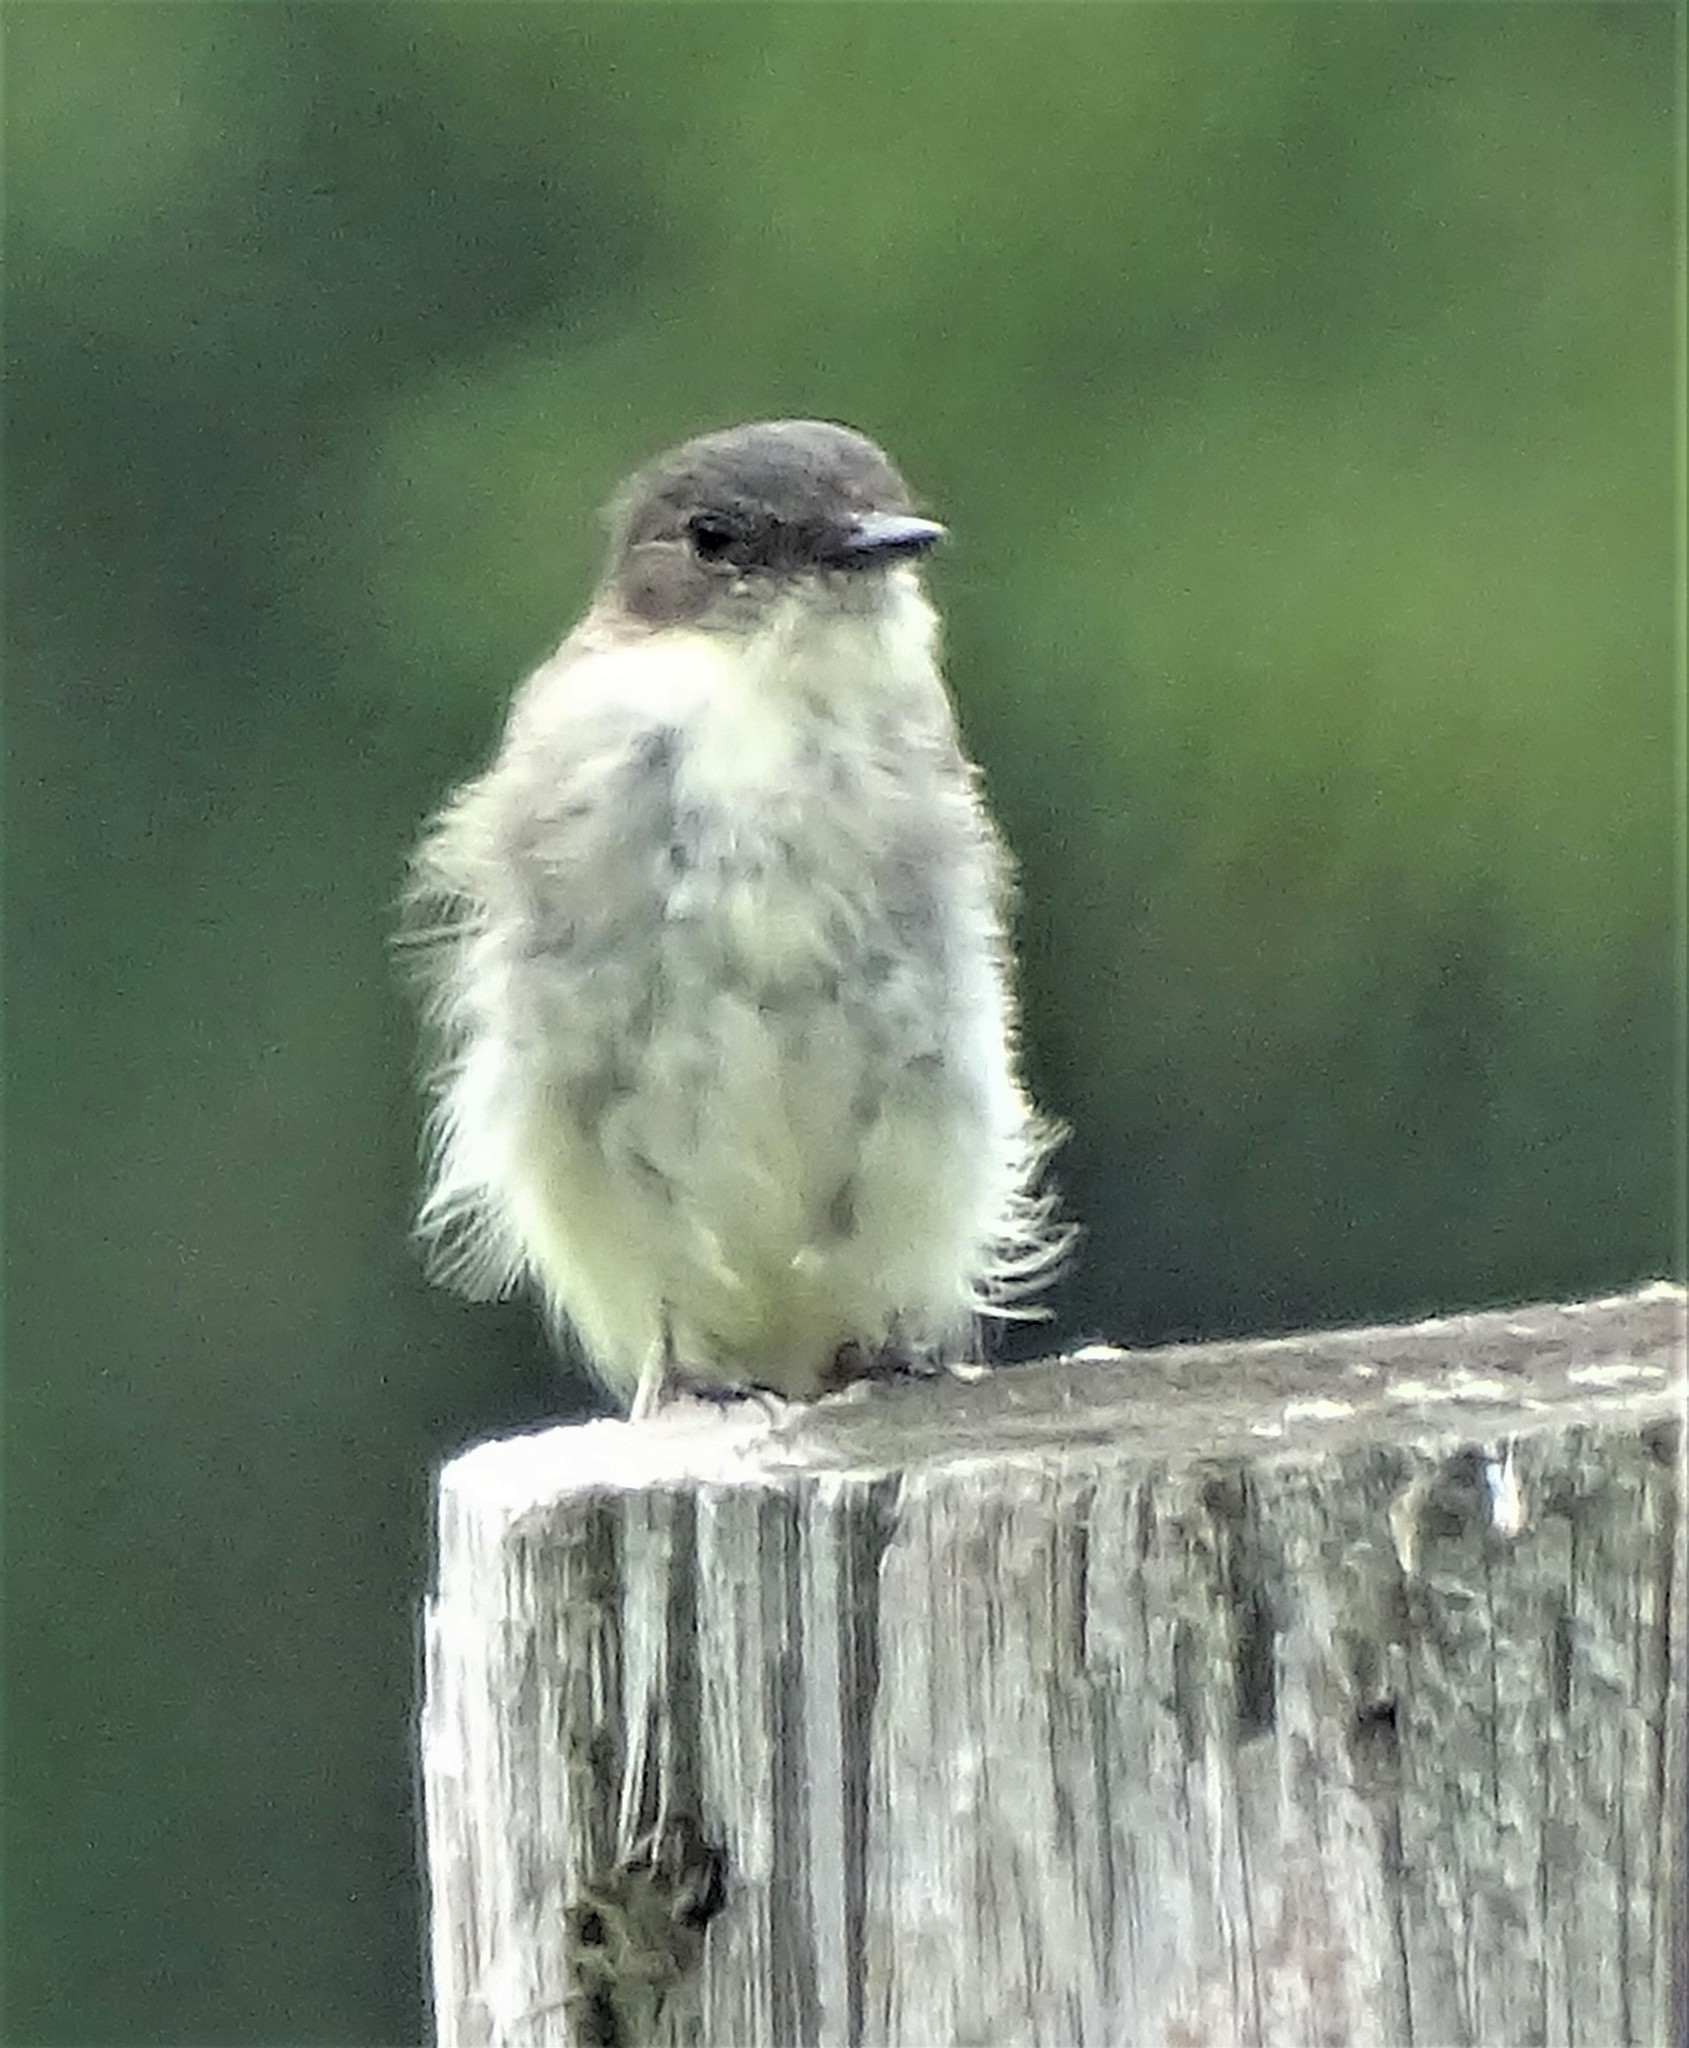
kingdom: Animalia
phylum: Chordata
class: Aves
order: Passeriformes
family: Tyrannidae
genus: Sayornis
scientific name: Sayornis phoebe
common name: Eastern phoebe
